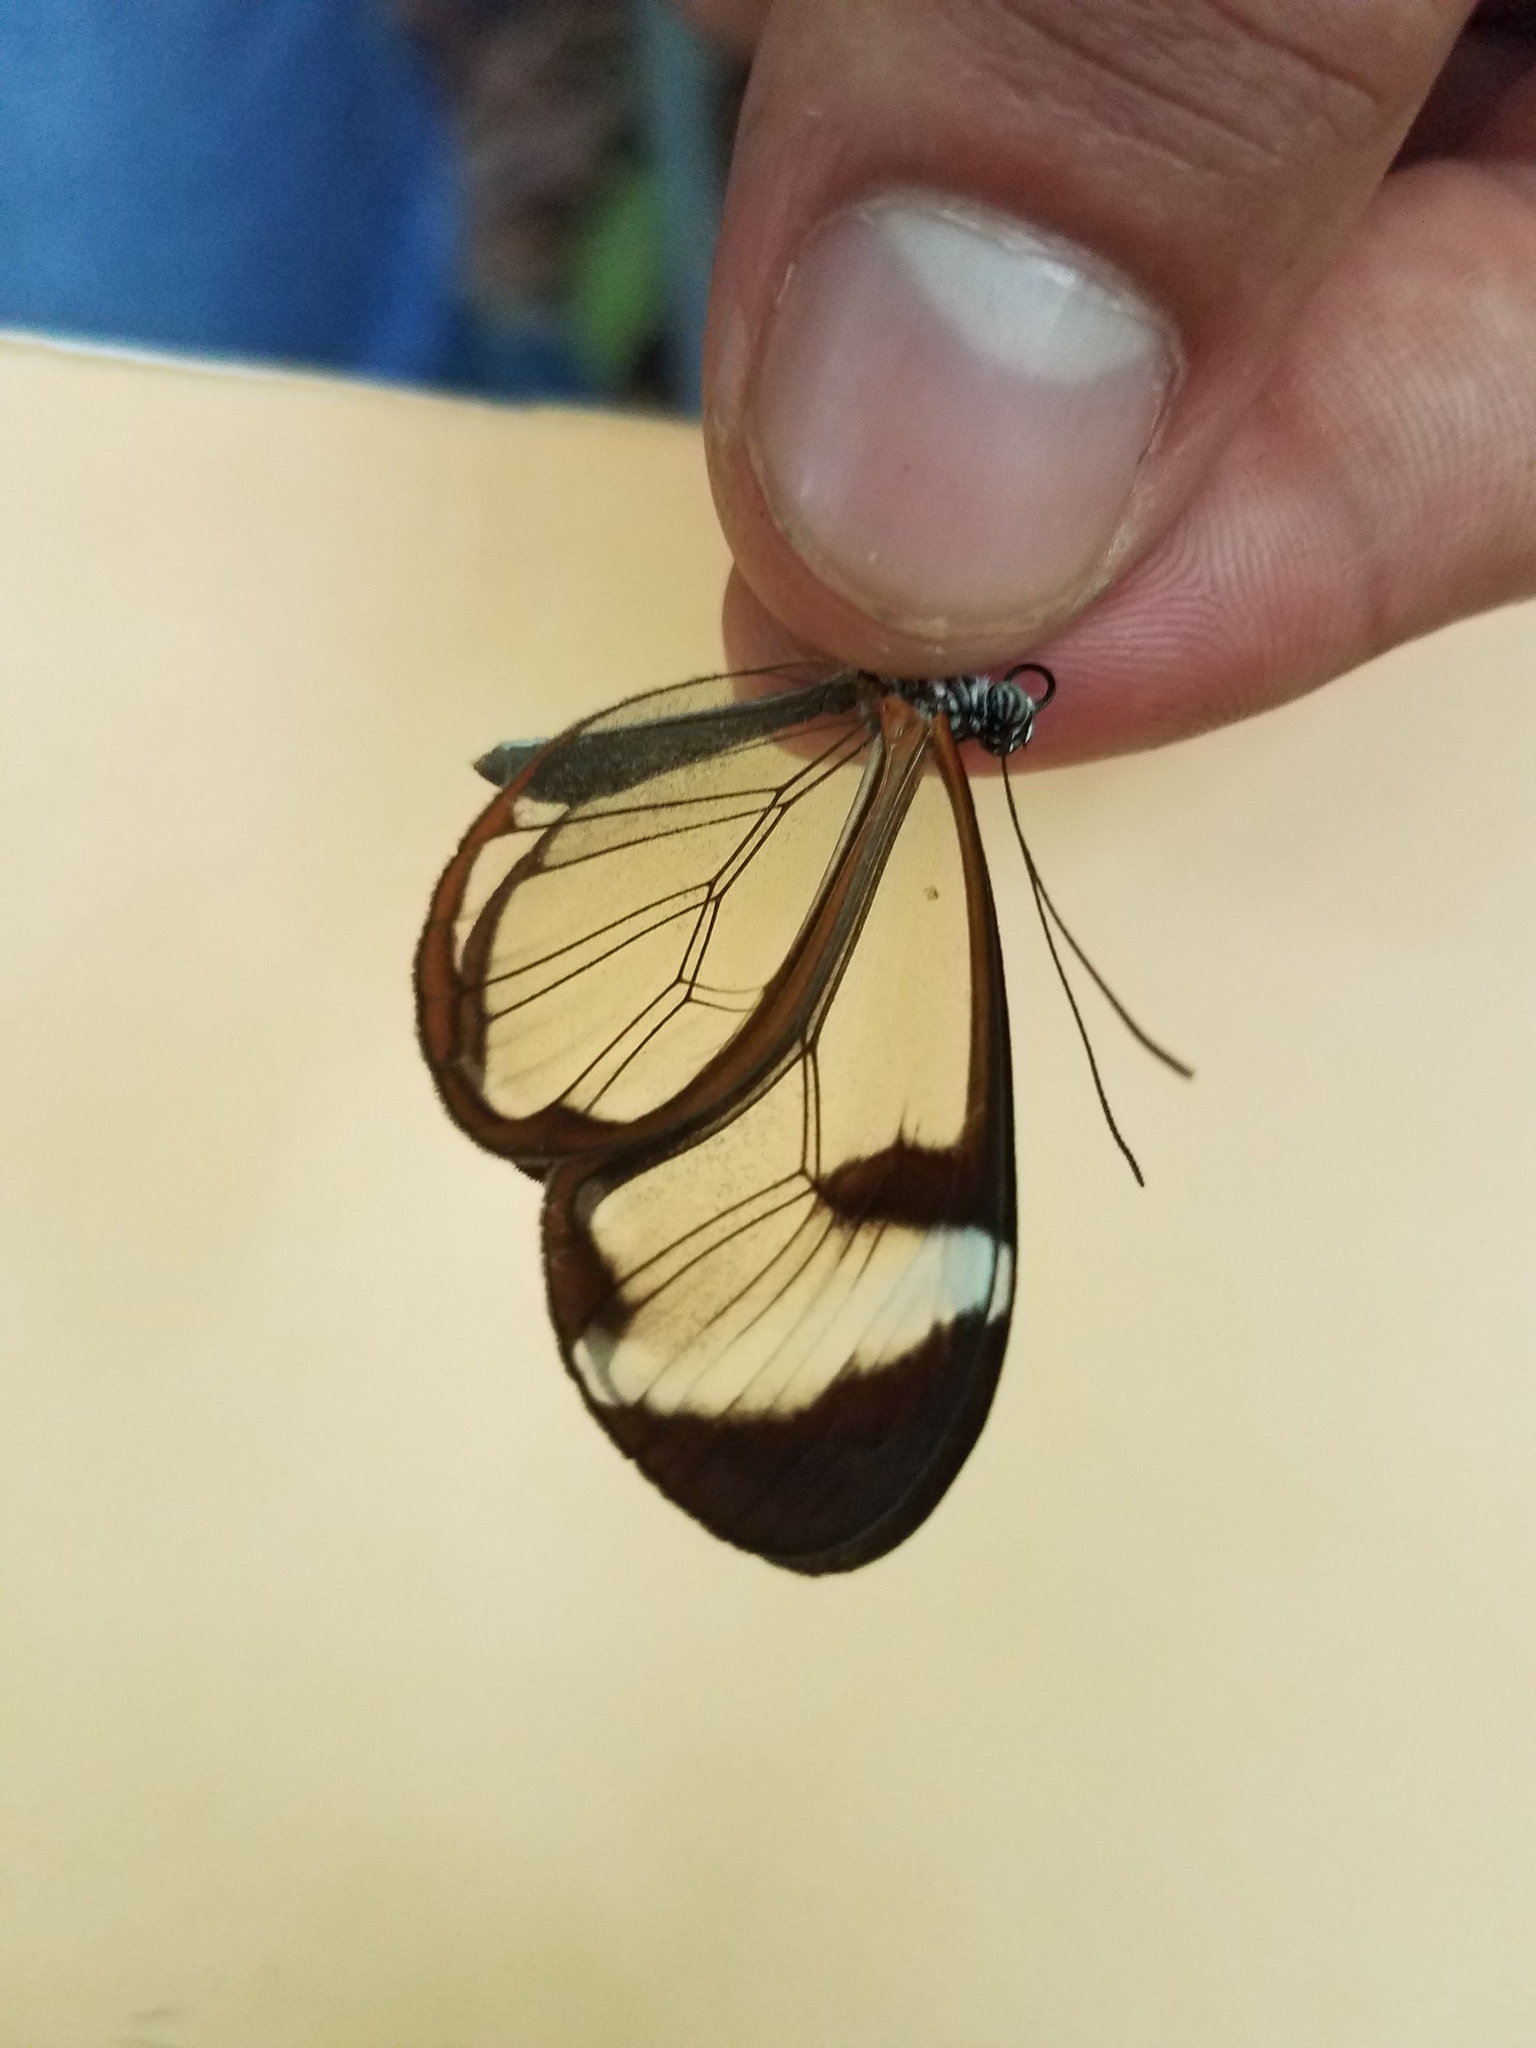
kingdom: Animalia
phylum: Arthropoda
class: Insecta
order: Lepidoptera
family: Nymphalidae
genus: Greta
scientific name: Greta morgane
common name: Thick-tipped greta
